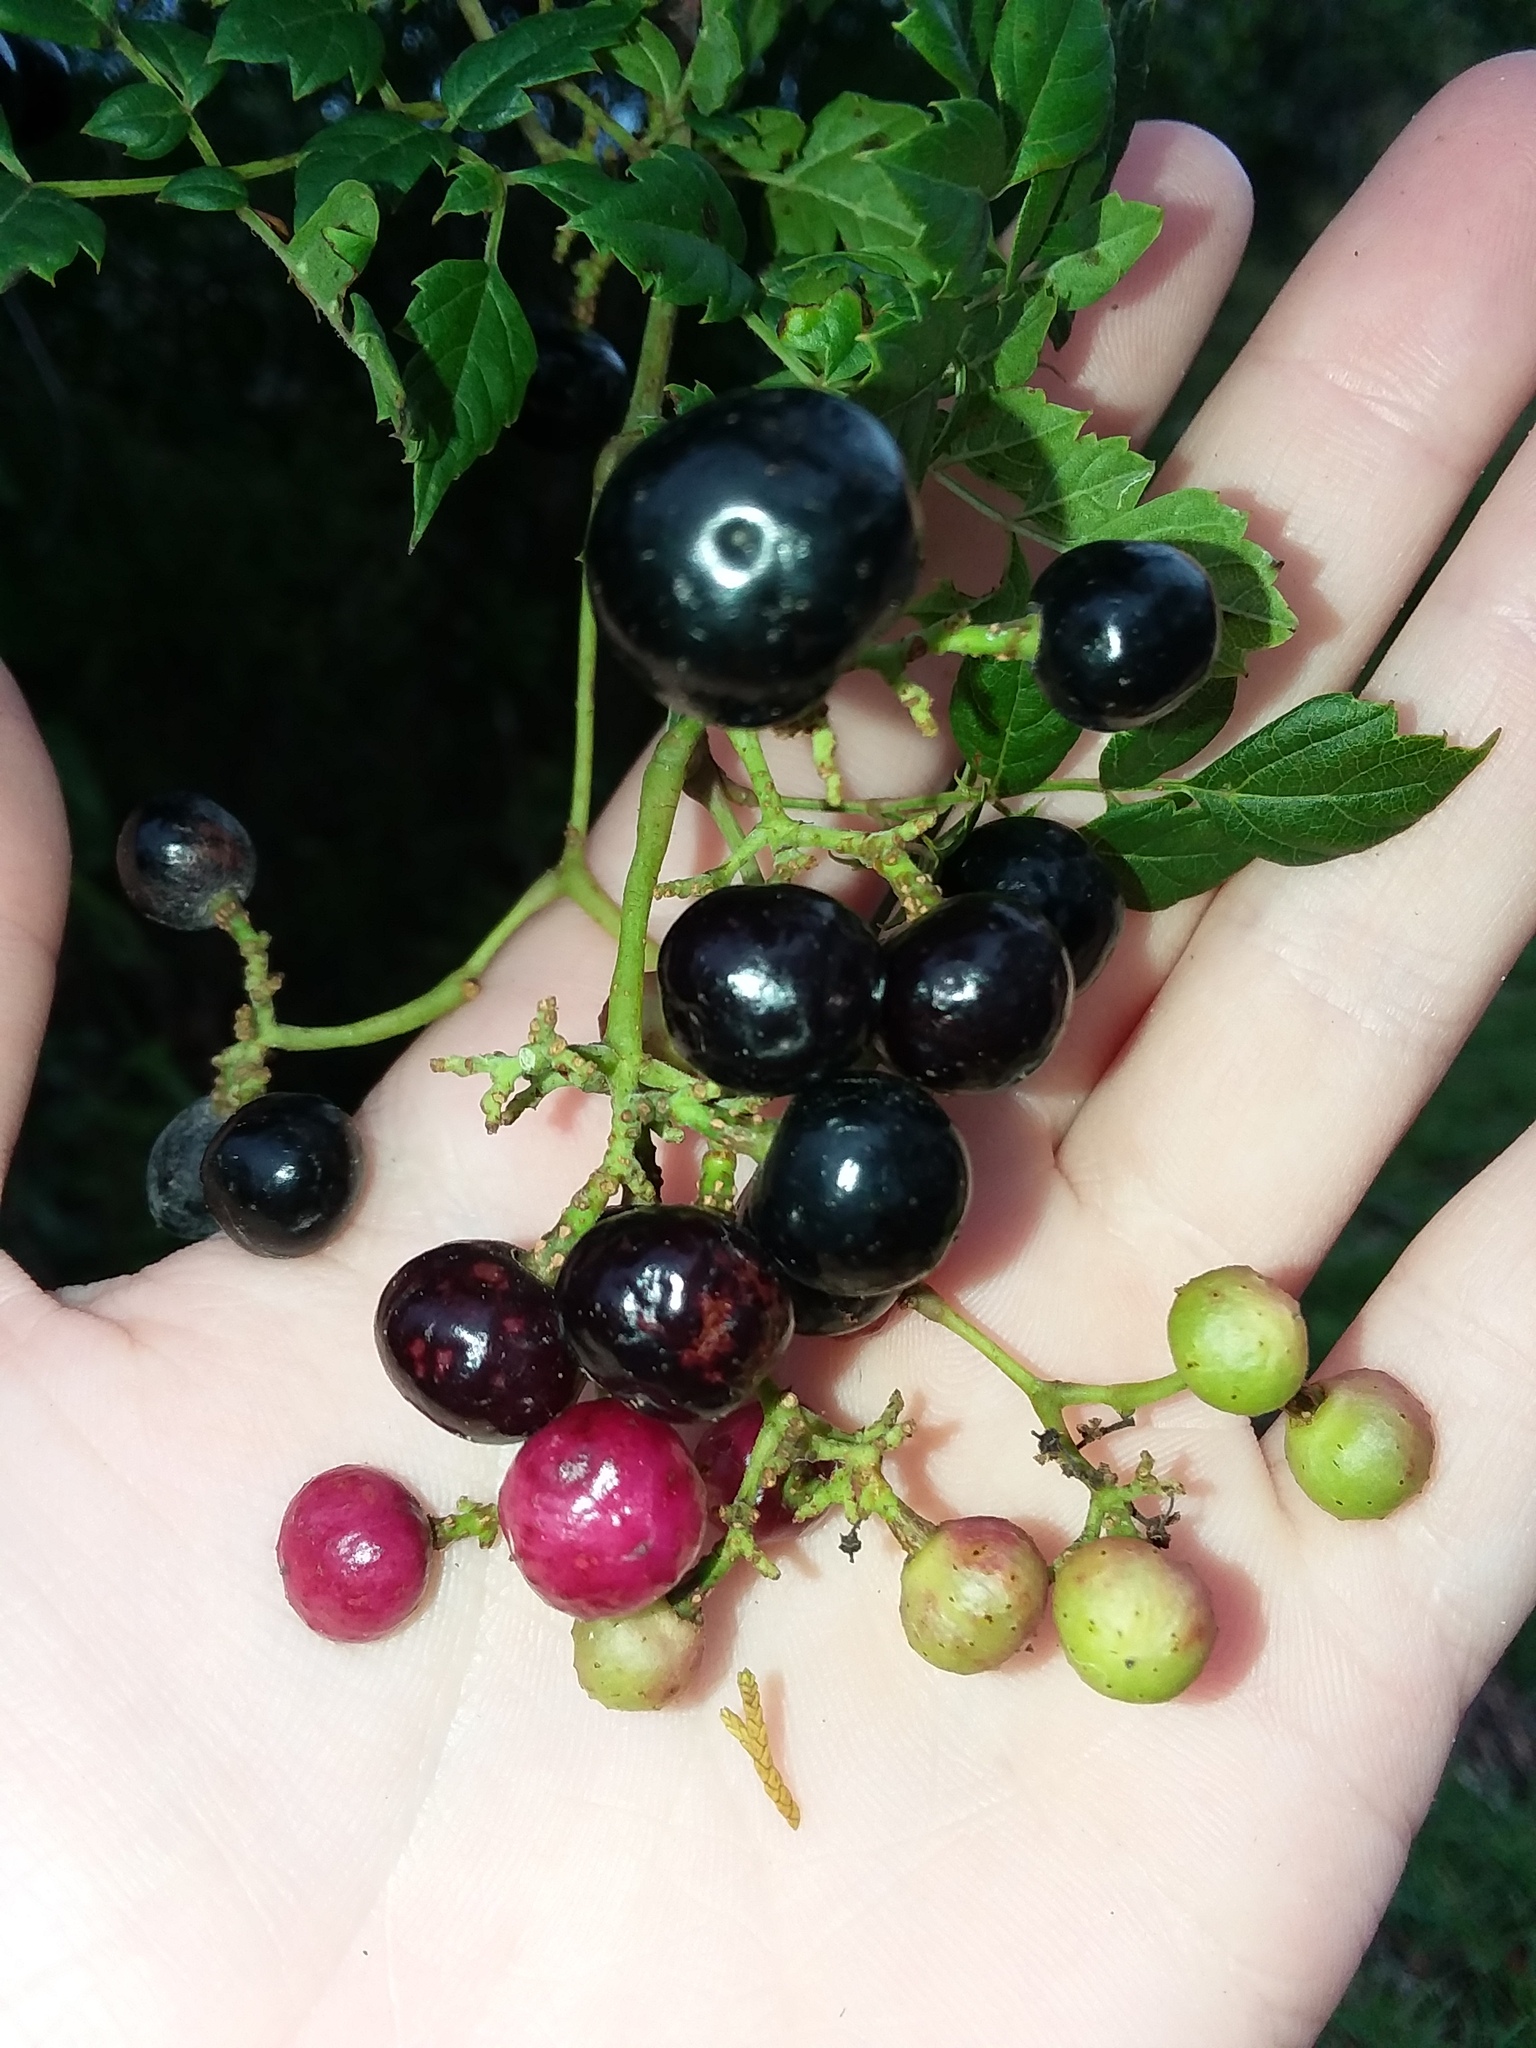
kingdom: Plantae
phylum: Tracheophyta
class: Magnoliopsida
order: Vitales
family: Vitaceae
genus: Nekemias
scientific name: Nekemias arborea
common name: Peppervine
